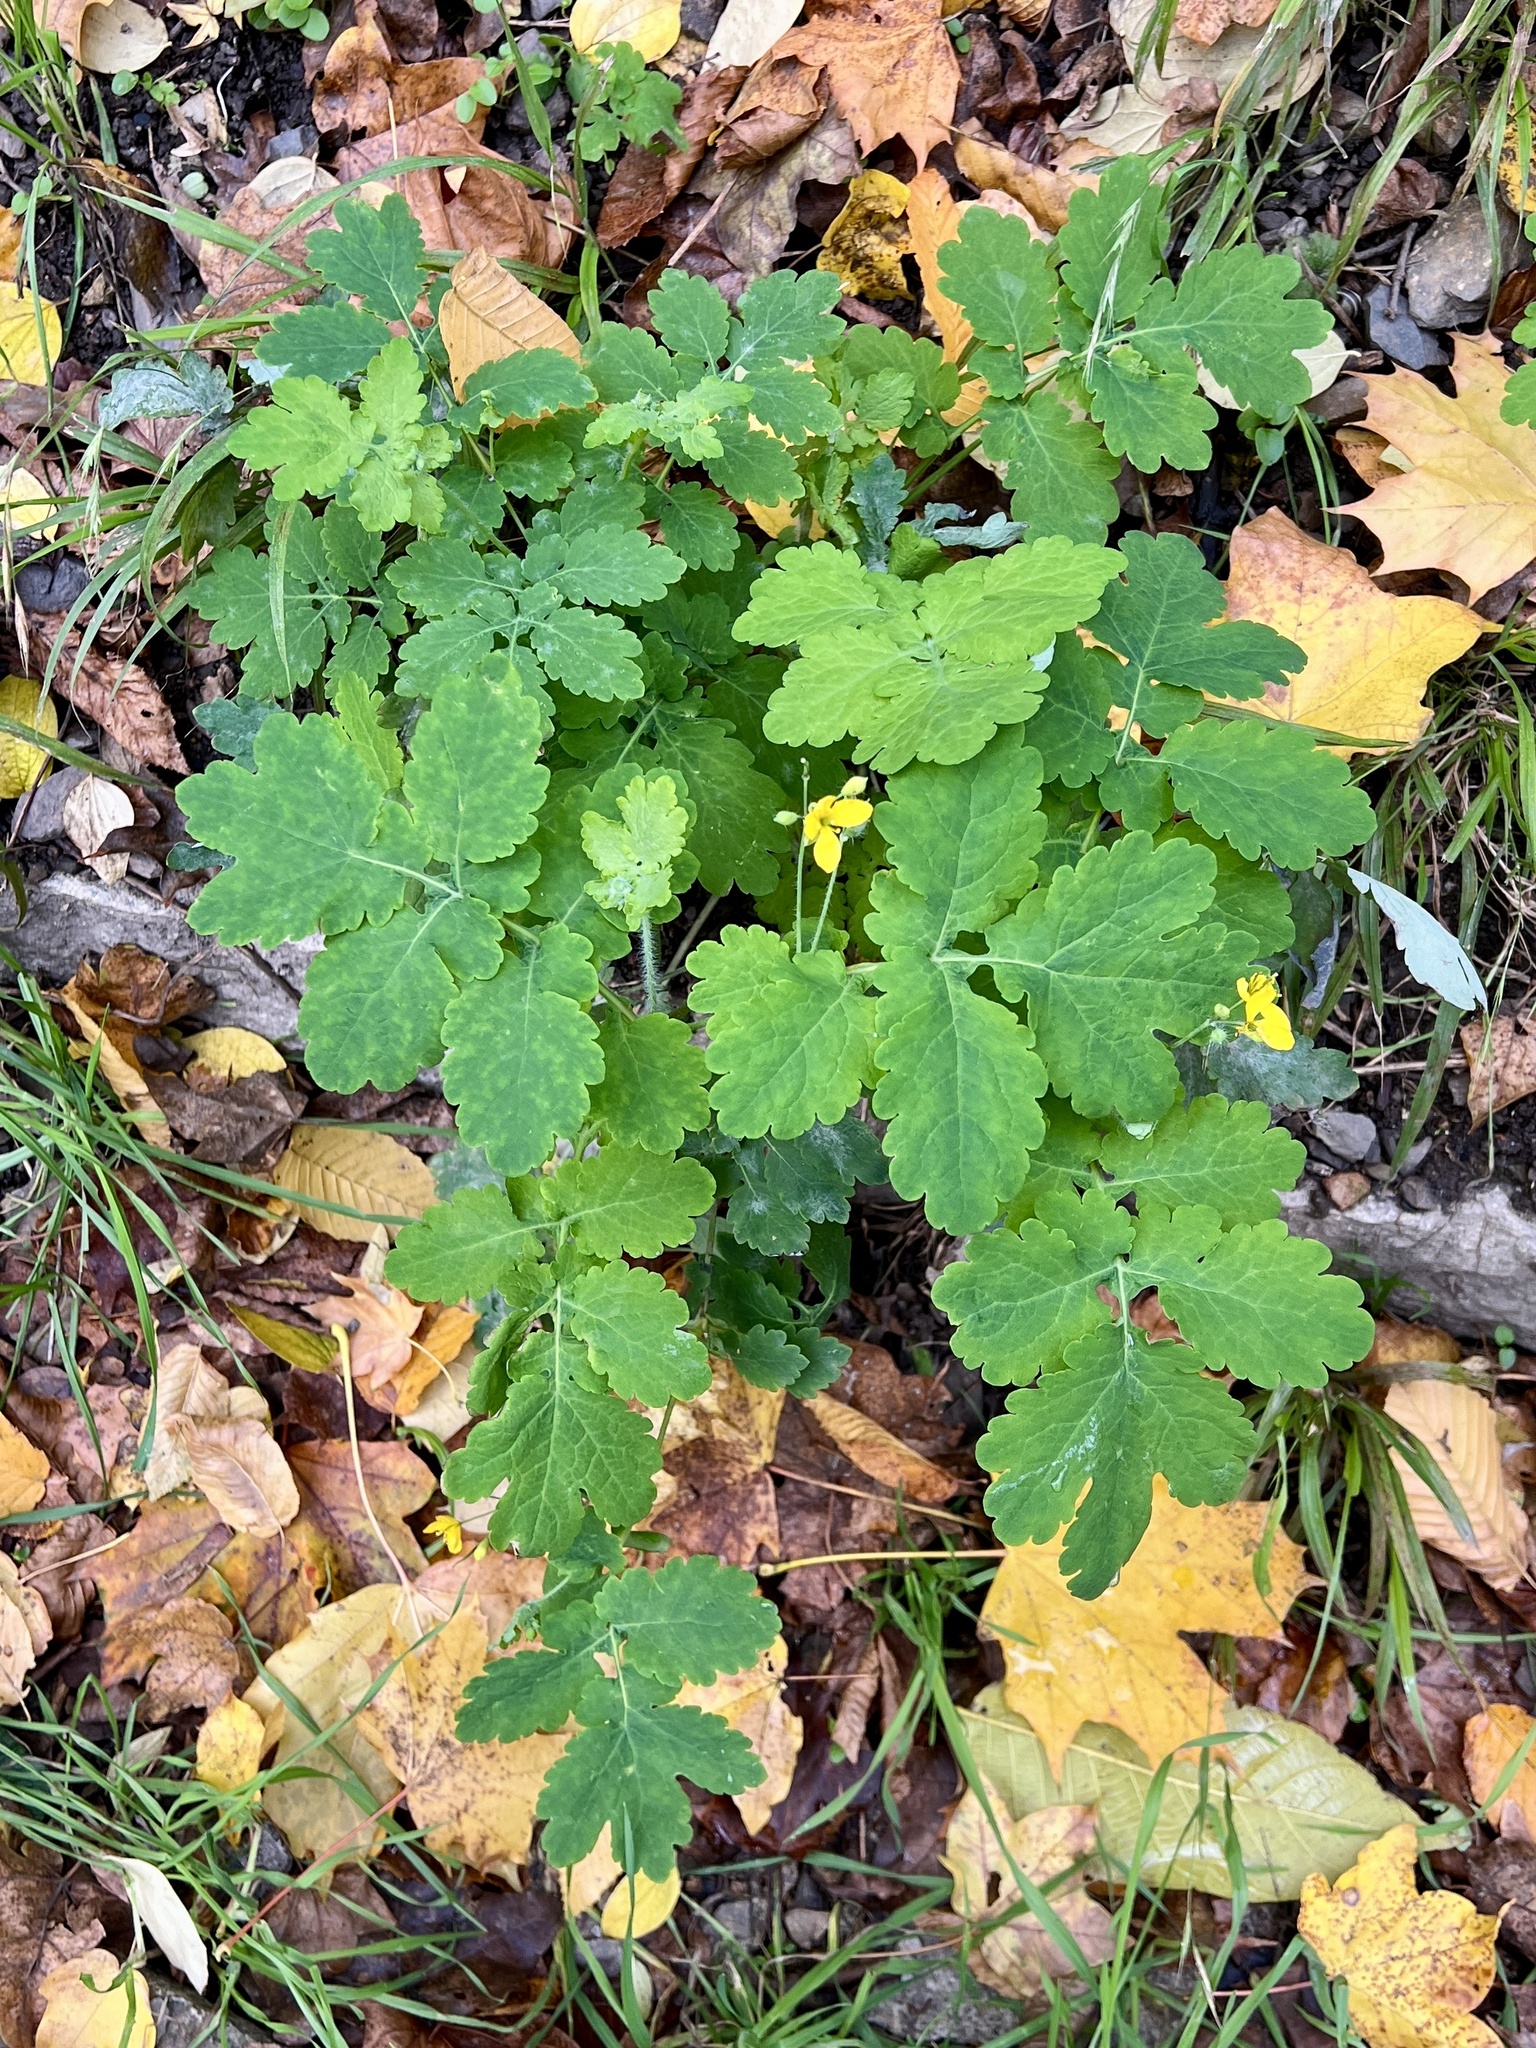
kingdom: Plantae
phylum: Tracheophyta
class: Magnoliopsida
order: Ranunculales
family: Papaveraceae
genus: Chelidonium
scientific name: Chelidonium majus
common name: Greater celandine
